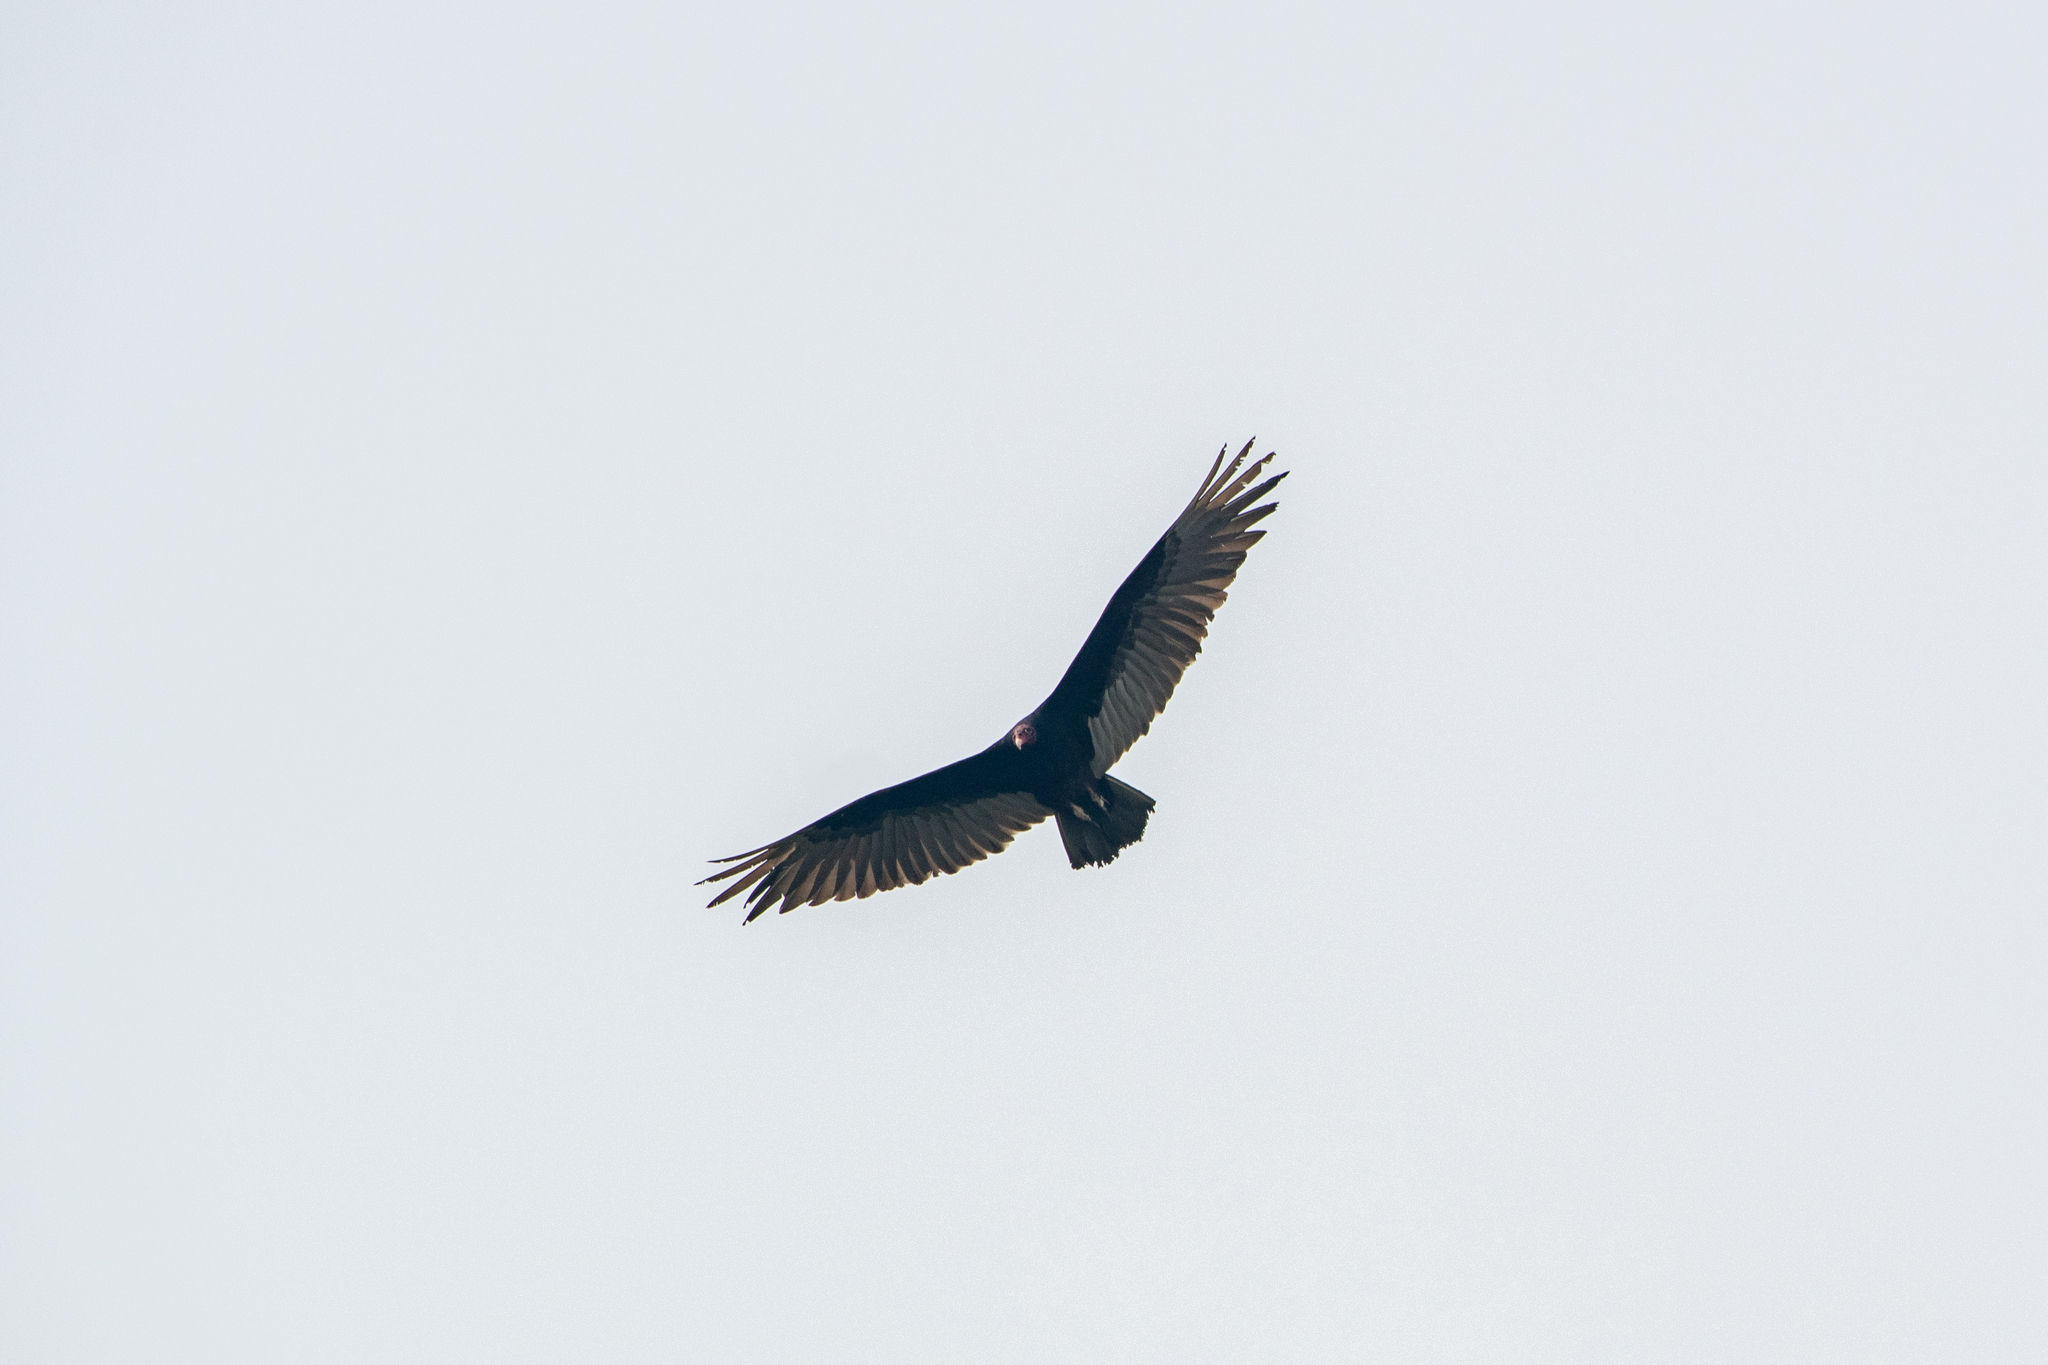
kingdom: Animalia
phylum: Chordata
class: Aves
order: Accipitriformes
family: Cathartidae
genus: Cathartes
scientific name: Cathartes aura
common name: Turkey vulture
